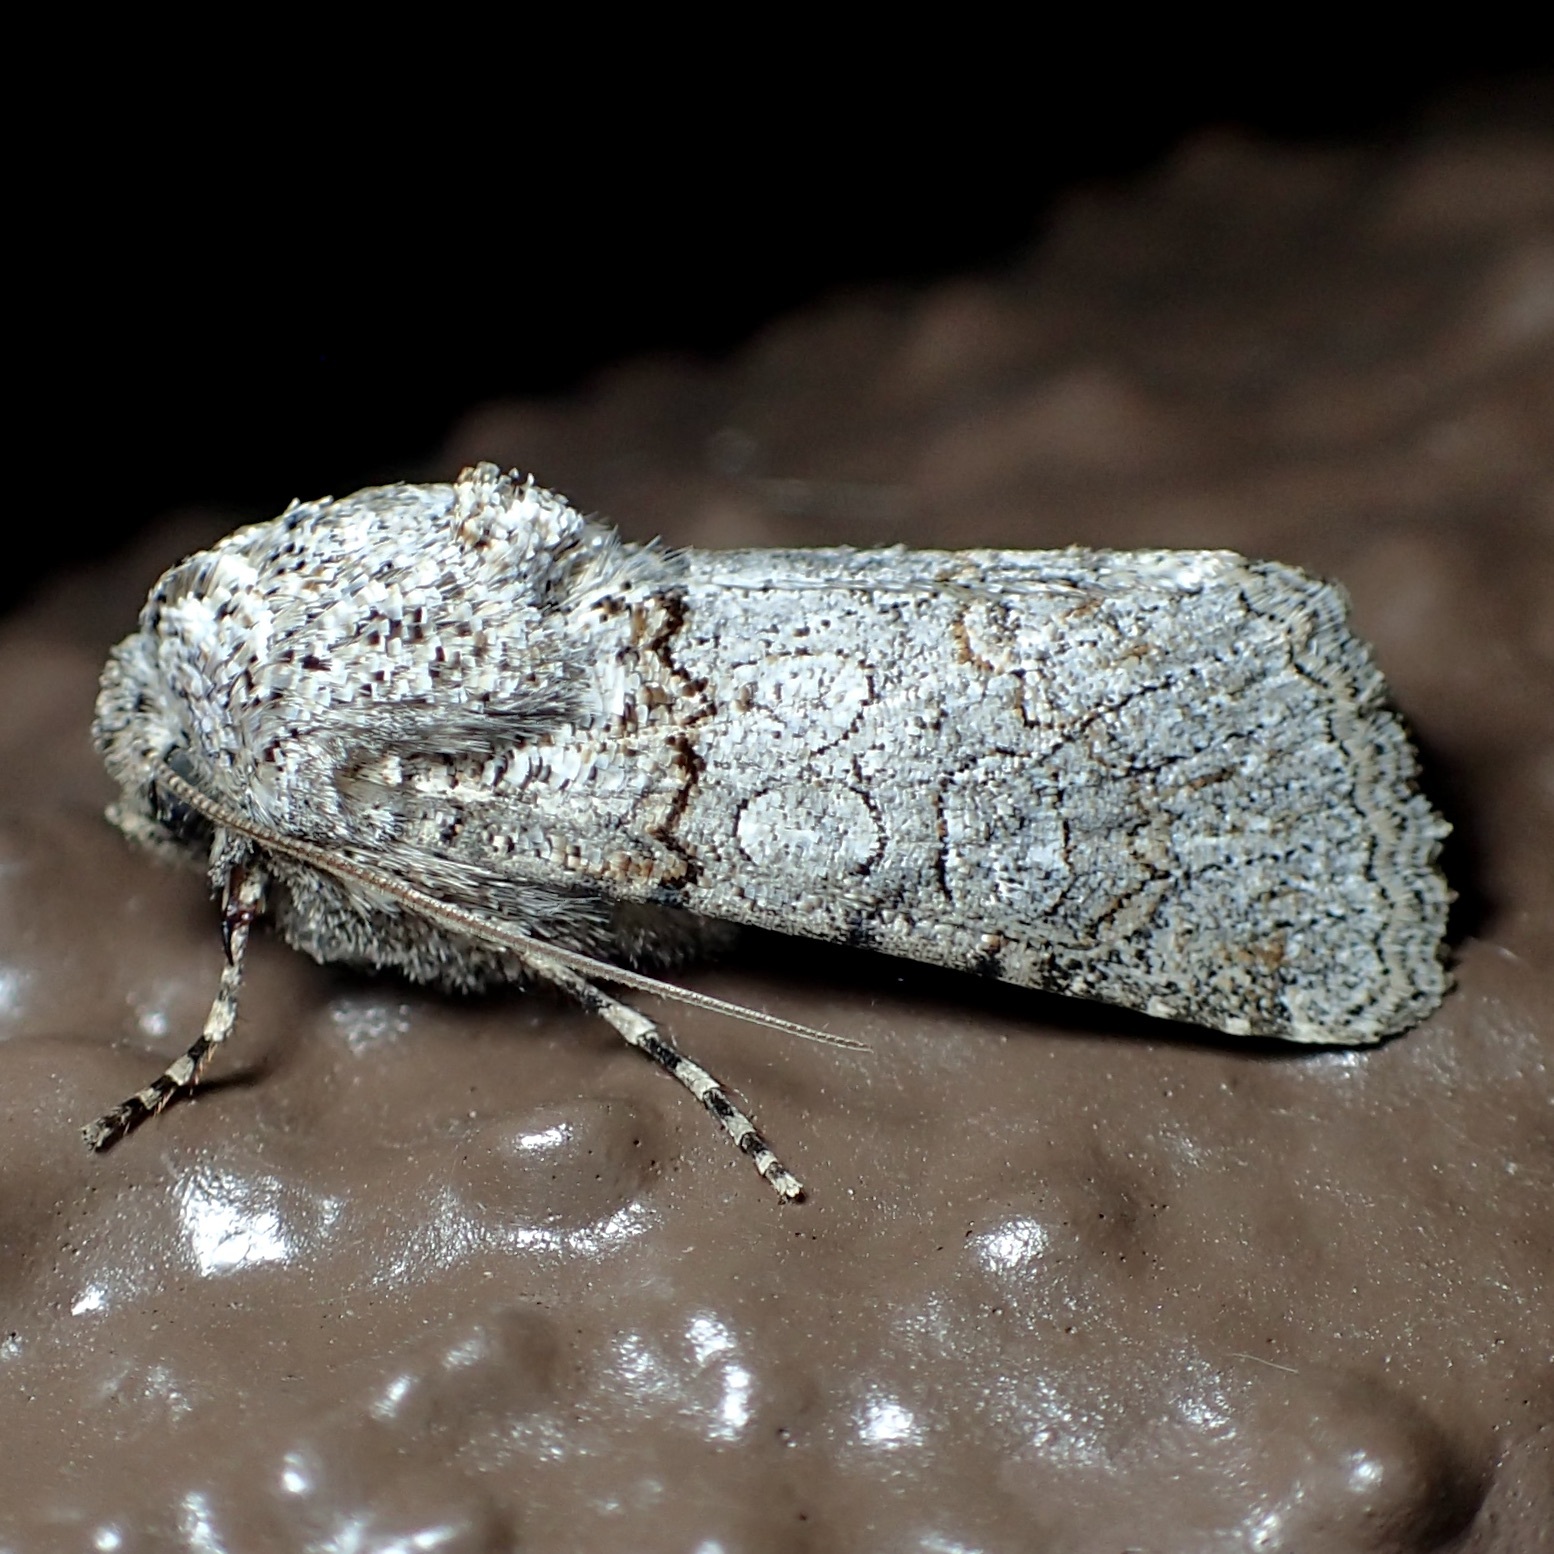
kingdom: Animalia
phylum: Arthropoda
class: Insecta
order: Lepidoptera
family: Noctuidae
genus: Sympistis
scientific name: Sympistis perscripta
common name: Scribbled sallow
